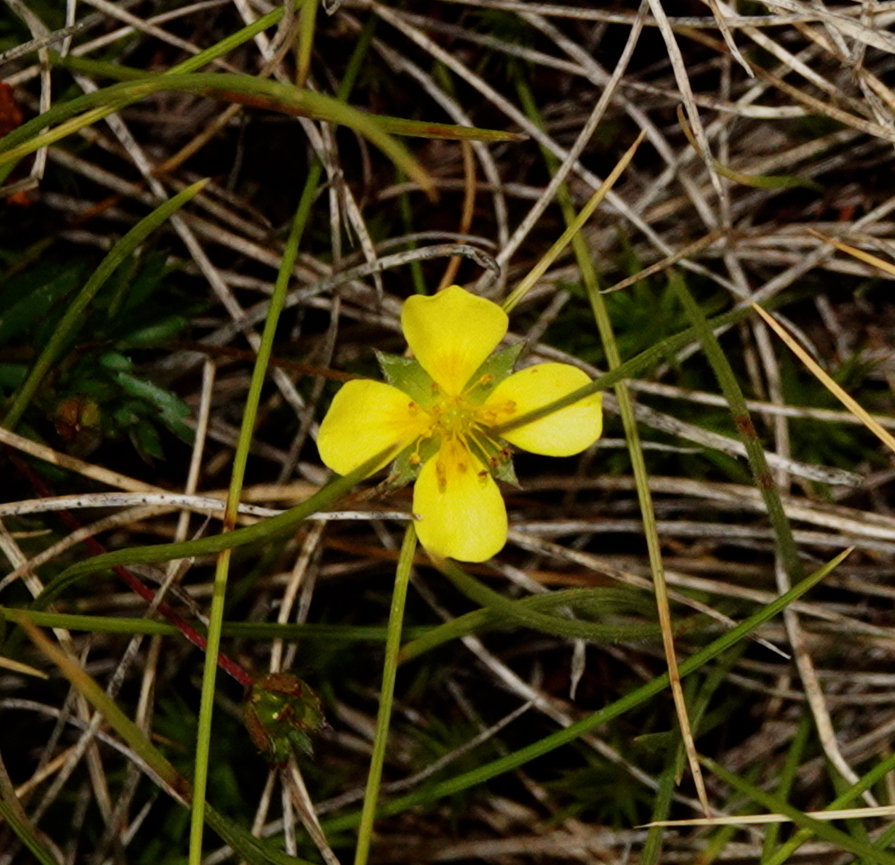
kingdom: Plantae
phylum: Tracheophyta
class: Magnoliopsida
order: Rosales
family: Rosaceae
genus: Potentilla
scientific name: Potentilla erecta
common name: Tormentil
